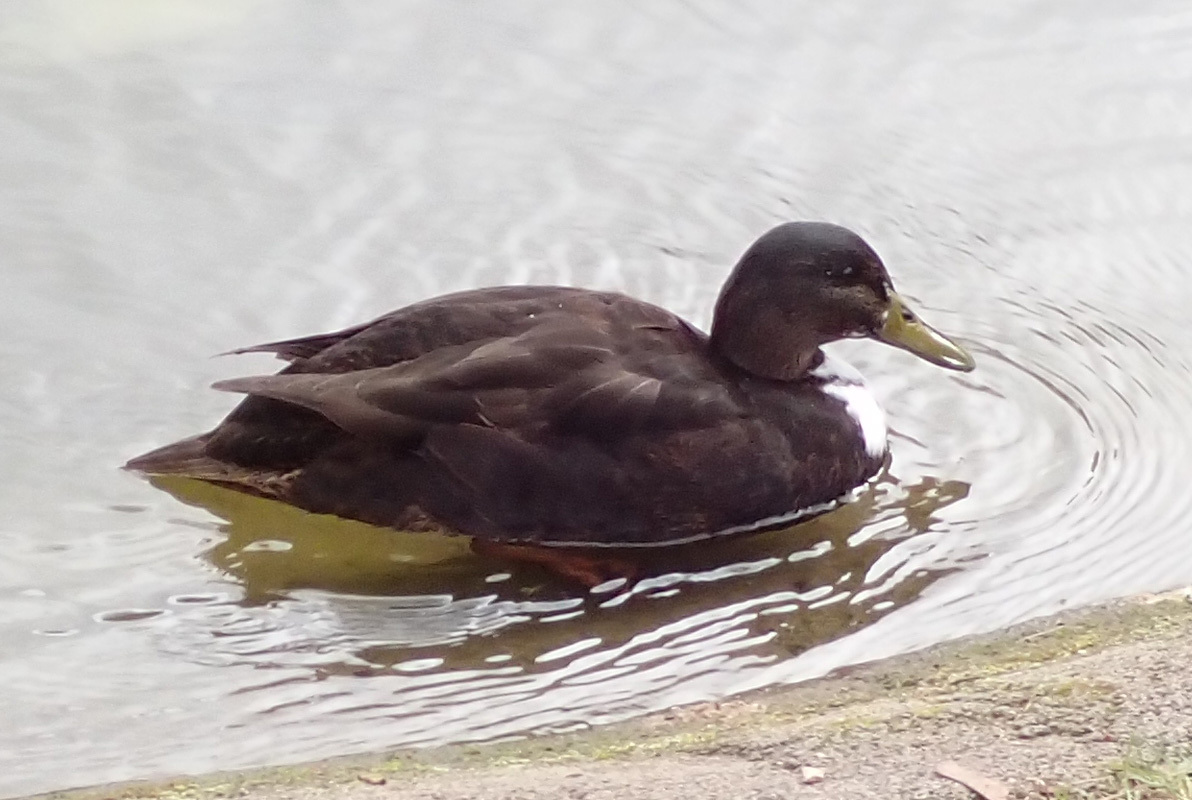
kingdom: Animalia
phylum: Chordata
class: Aves
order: Anseriformes
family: Anatidae
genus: Anas
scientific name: Anas platyrhynchos
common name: Mallard
